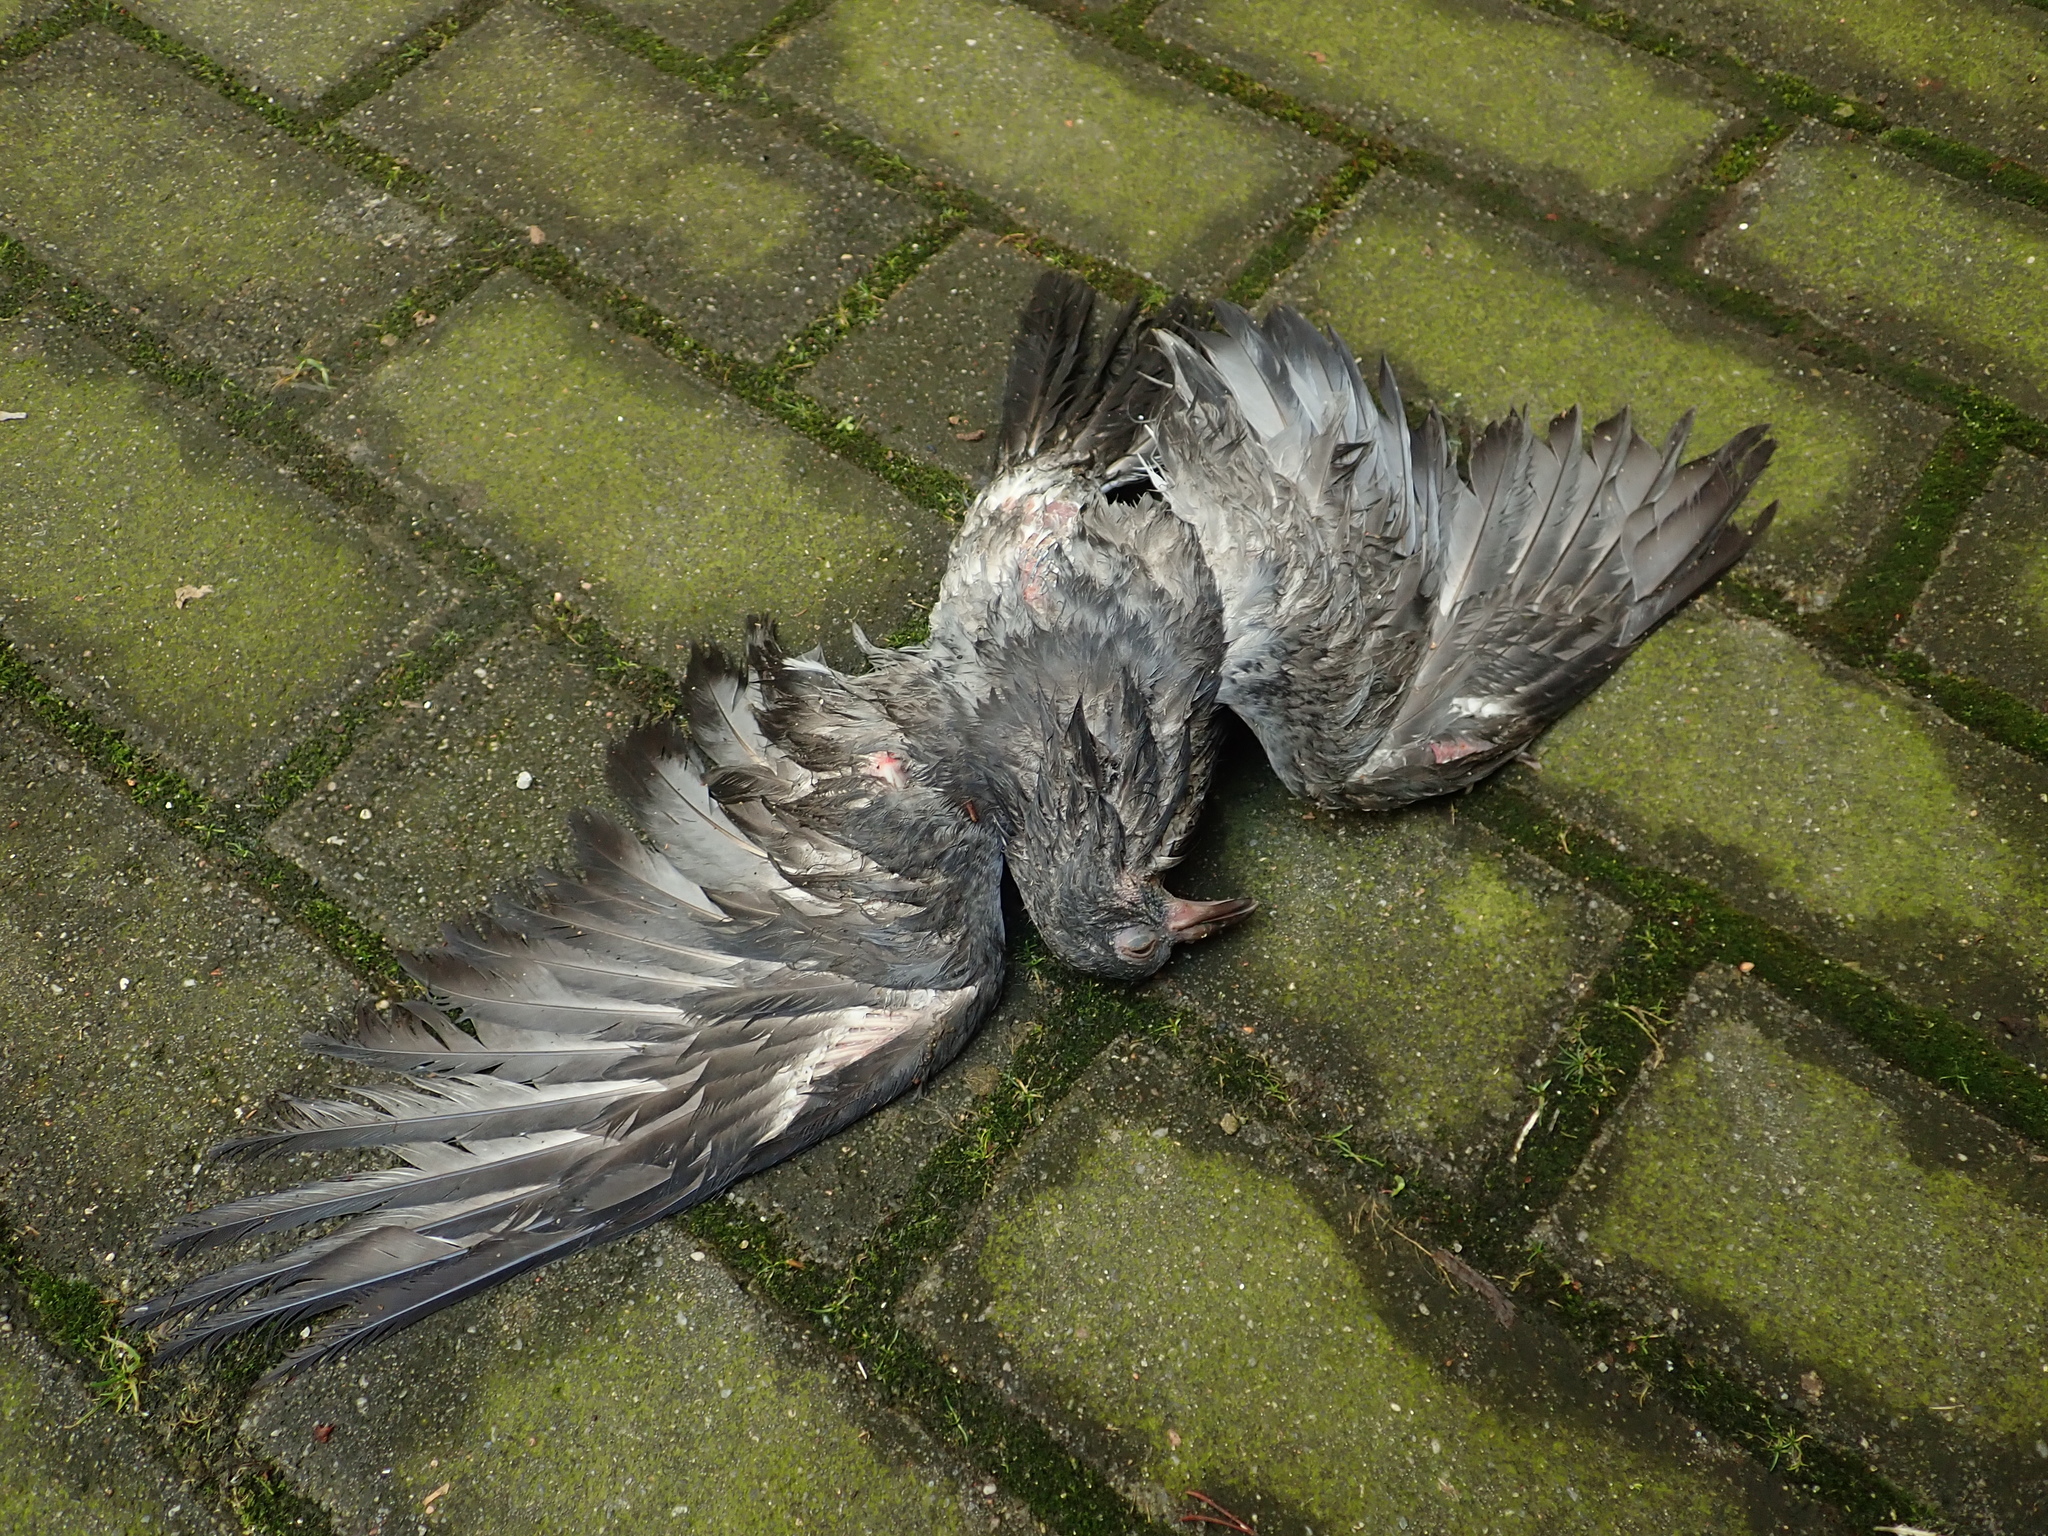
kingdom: Animalia
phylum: Chordata
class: Aves
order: Columbiformes
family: Columbidae
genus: Columba
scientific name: Columba livia
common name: Rock pigeon
